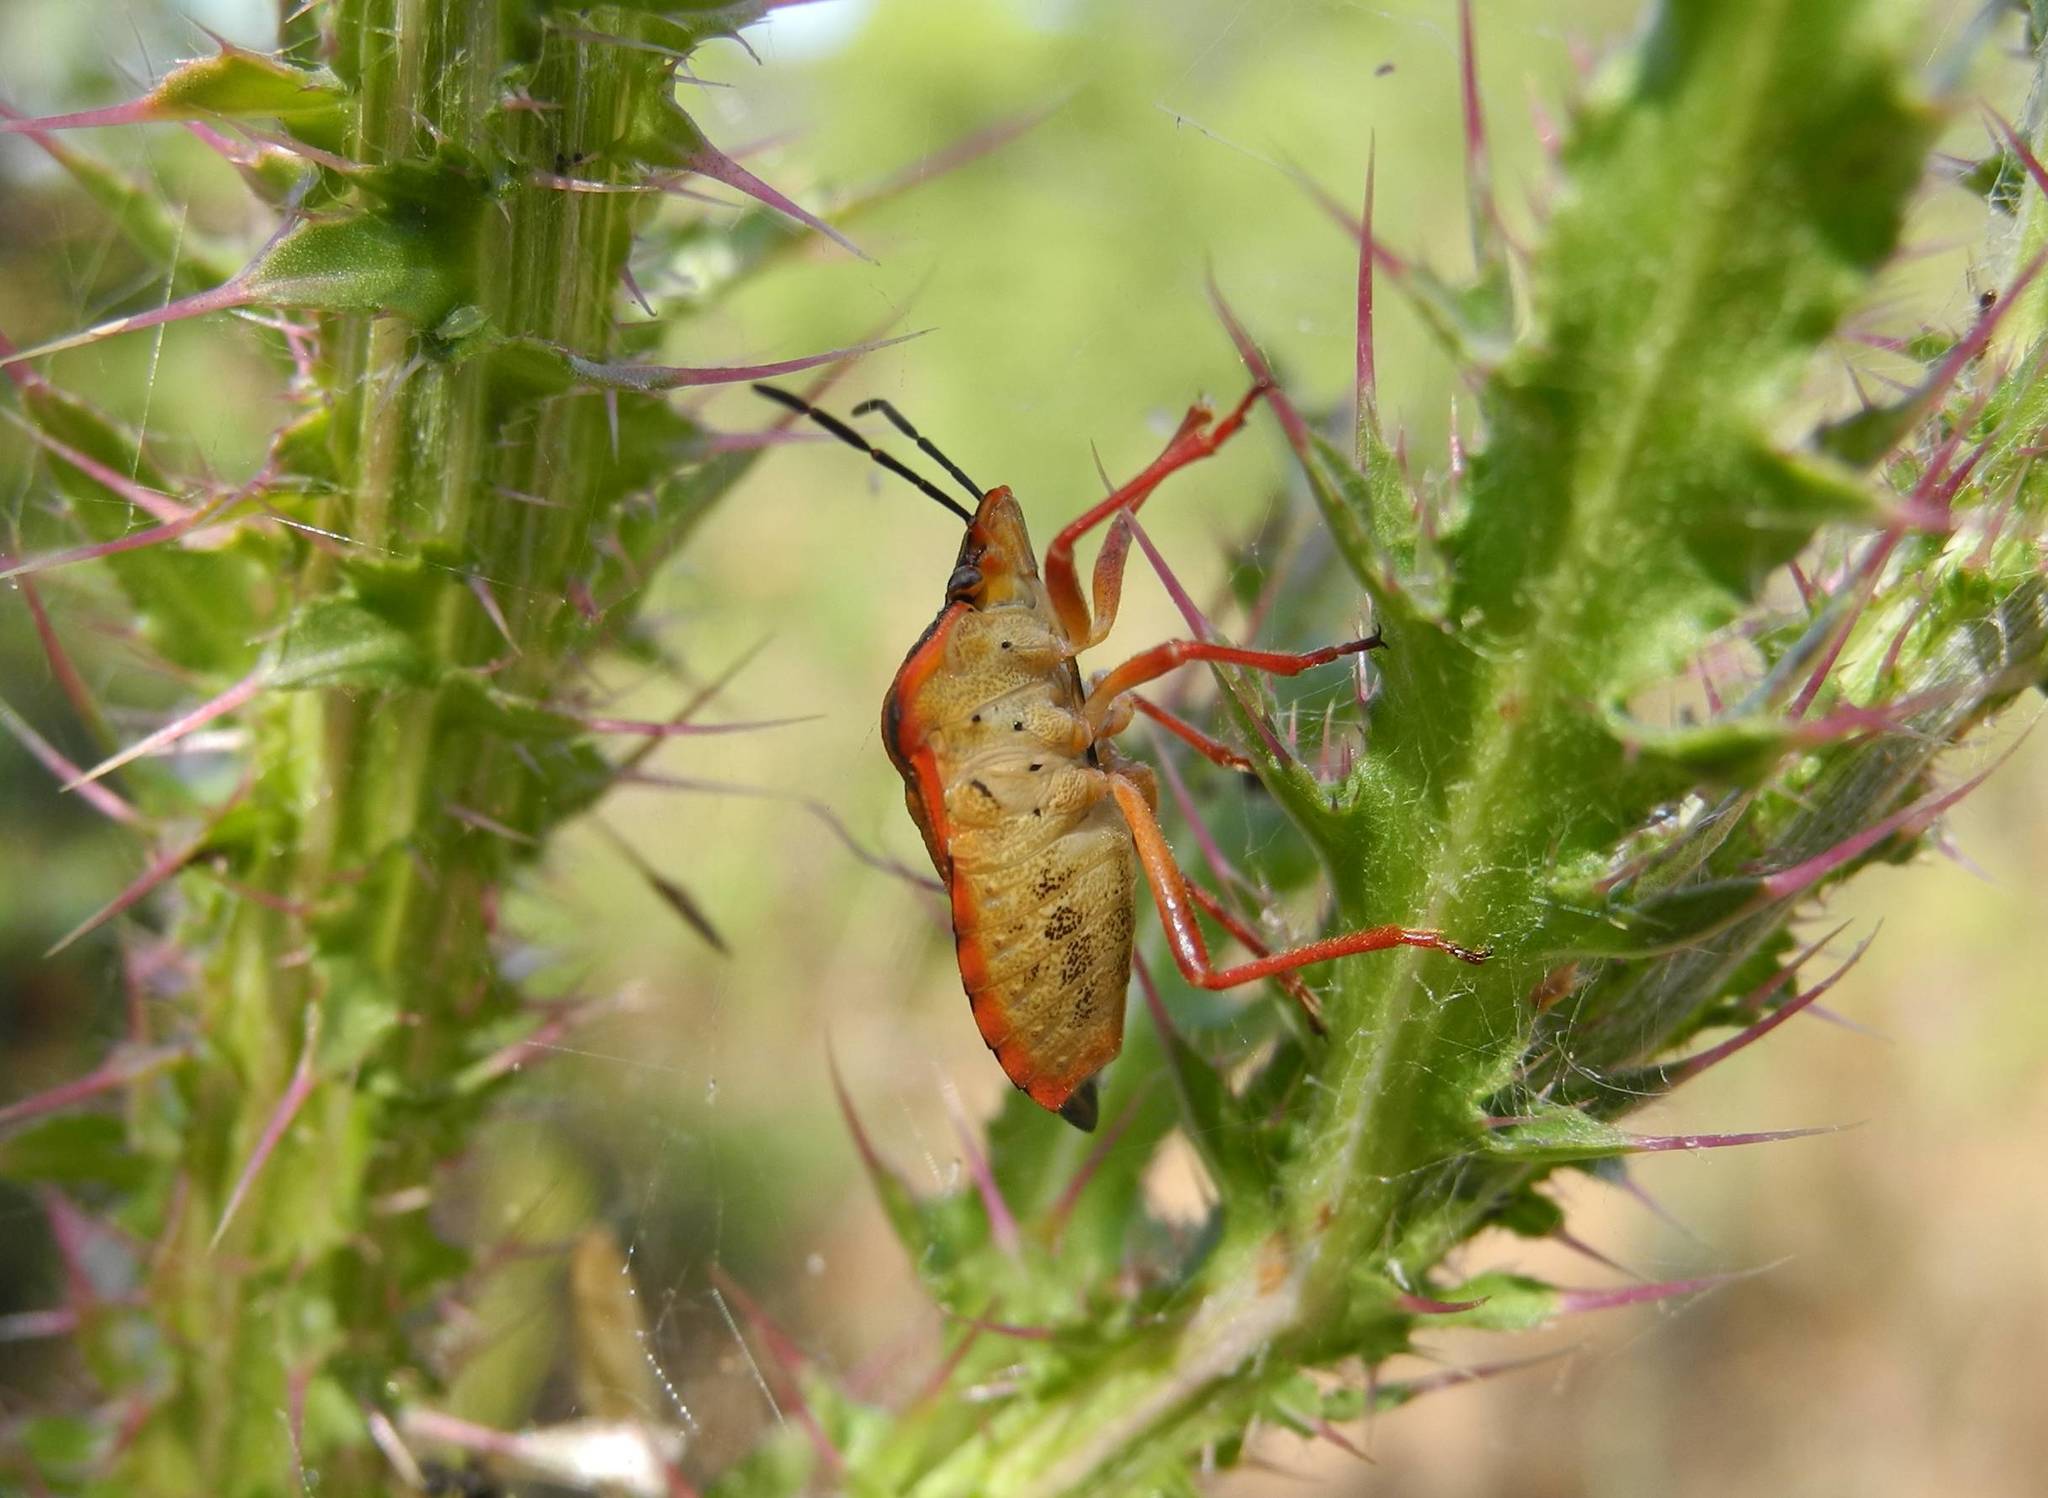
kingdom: Animalia
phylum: Arthropoda
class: Insecta
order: Hemiptera
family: Pentatomidae
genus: Carpocoris
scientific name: Carpocoris mediterraneus
